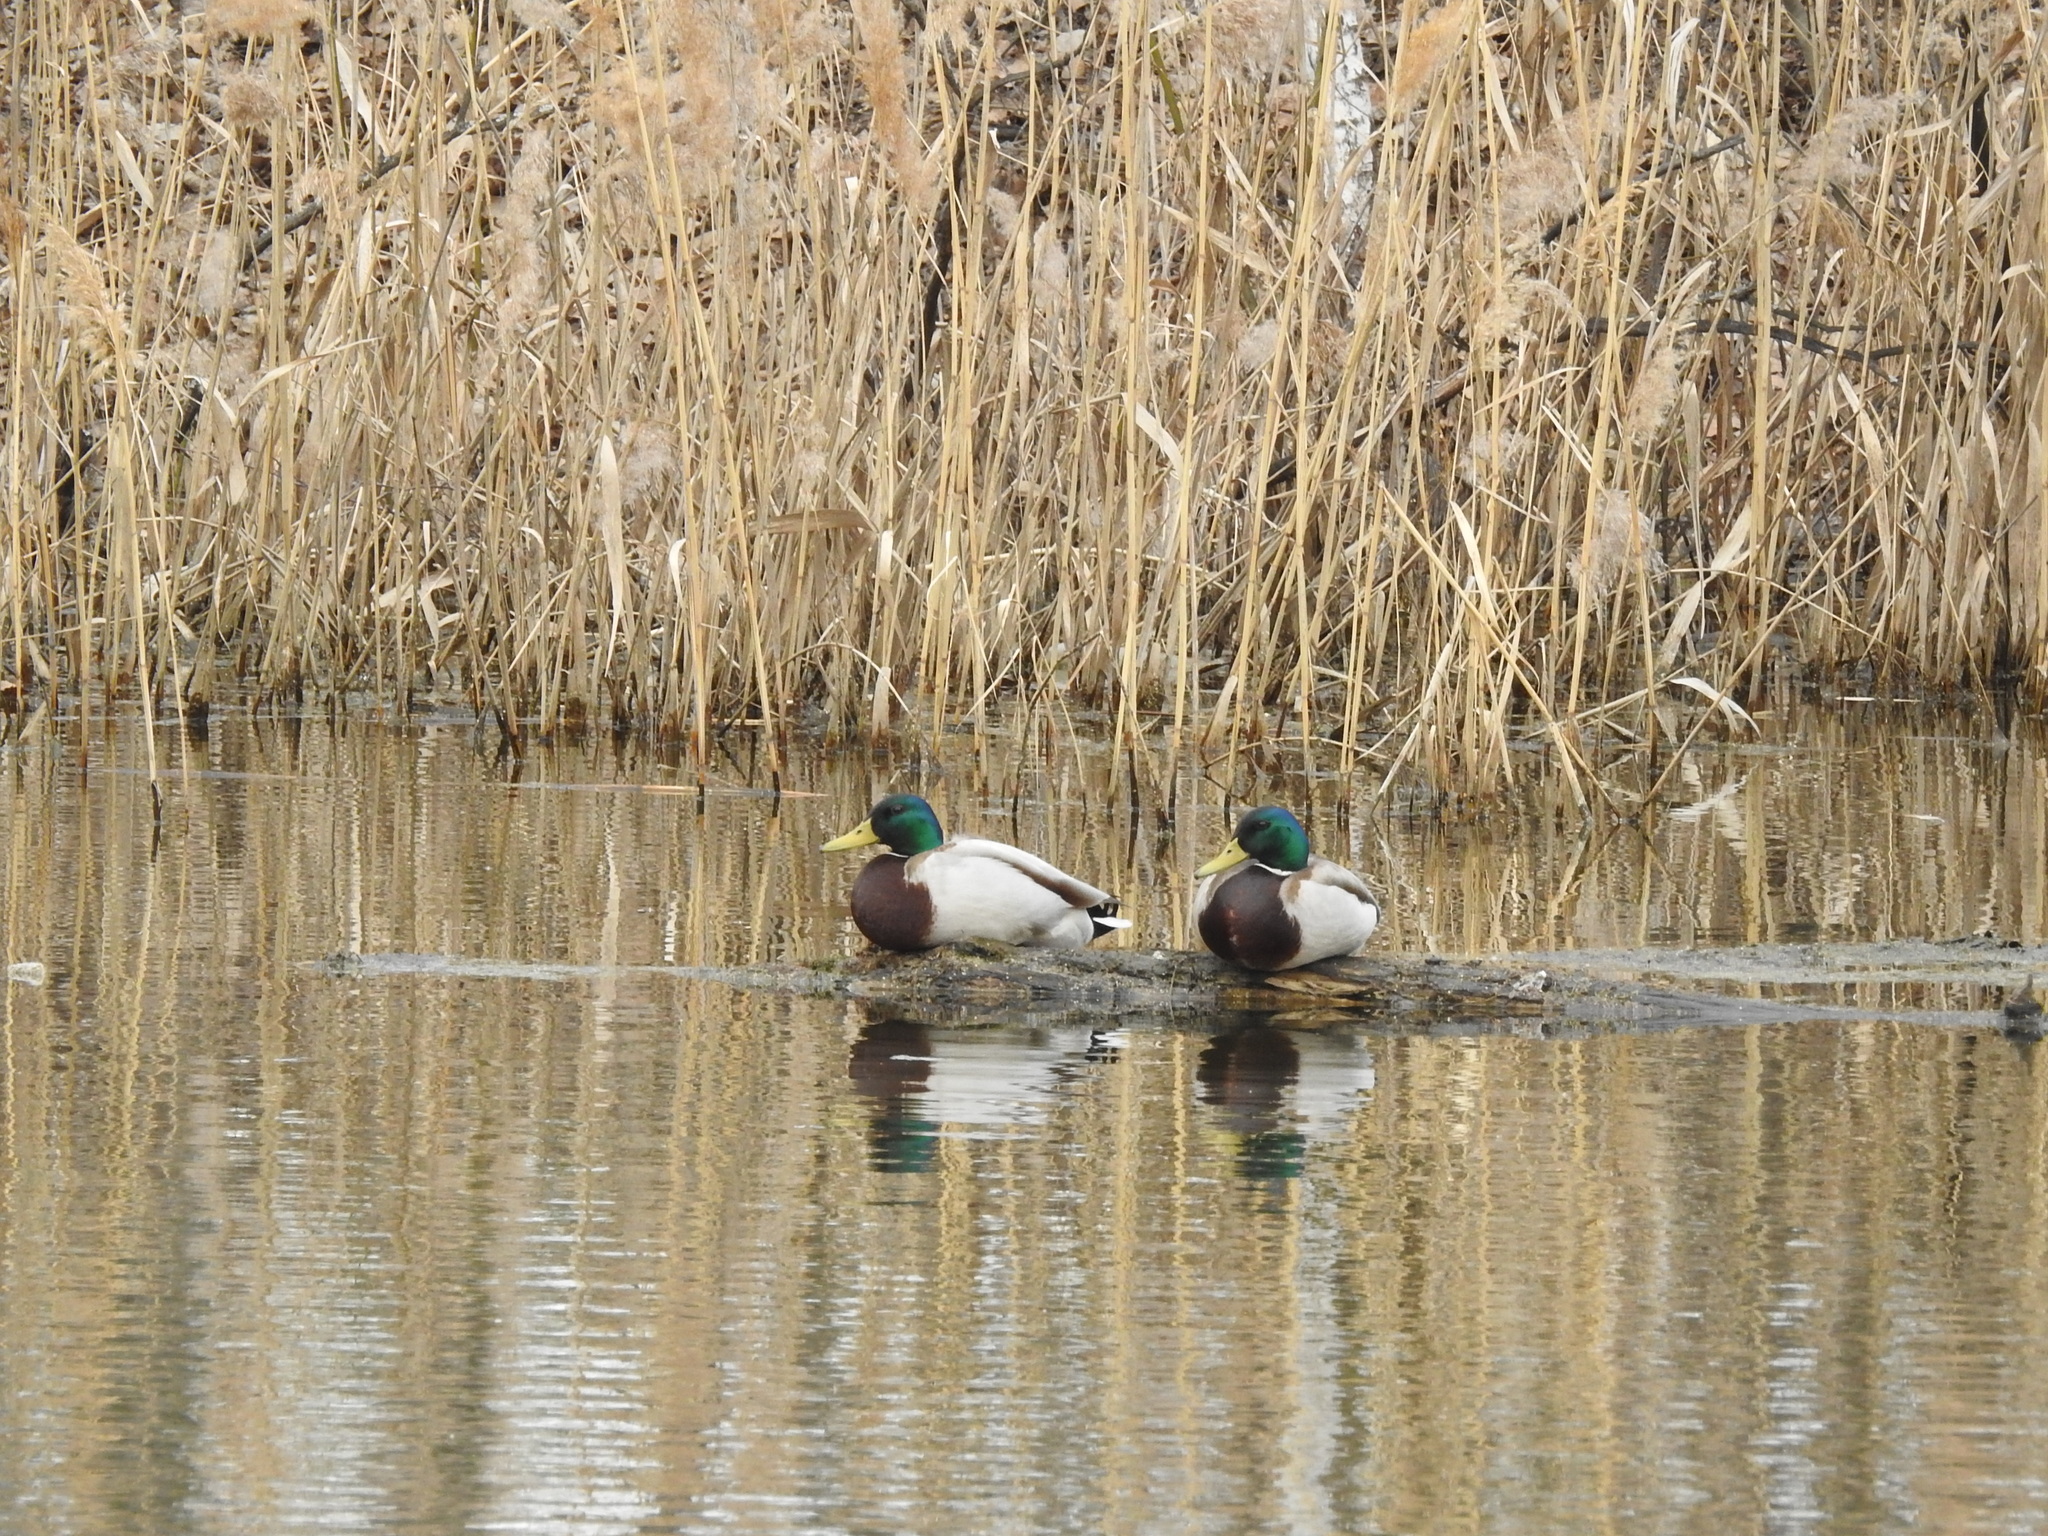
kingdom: Animalia
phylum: Chordata
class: Aves
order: Anseriformes
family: Anatidae
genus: Anas
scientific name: Anas platyrhynchos
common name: Mallard
